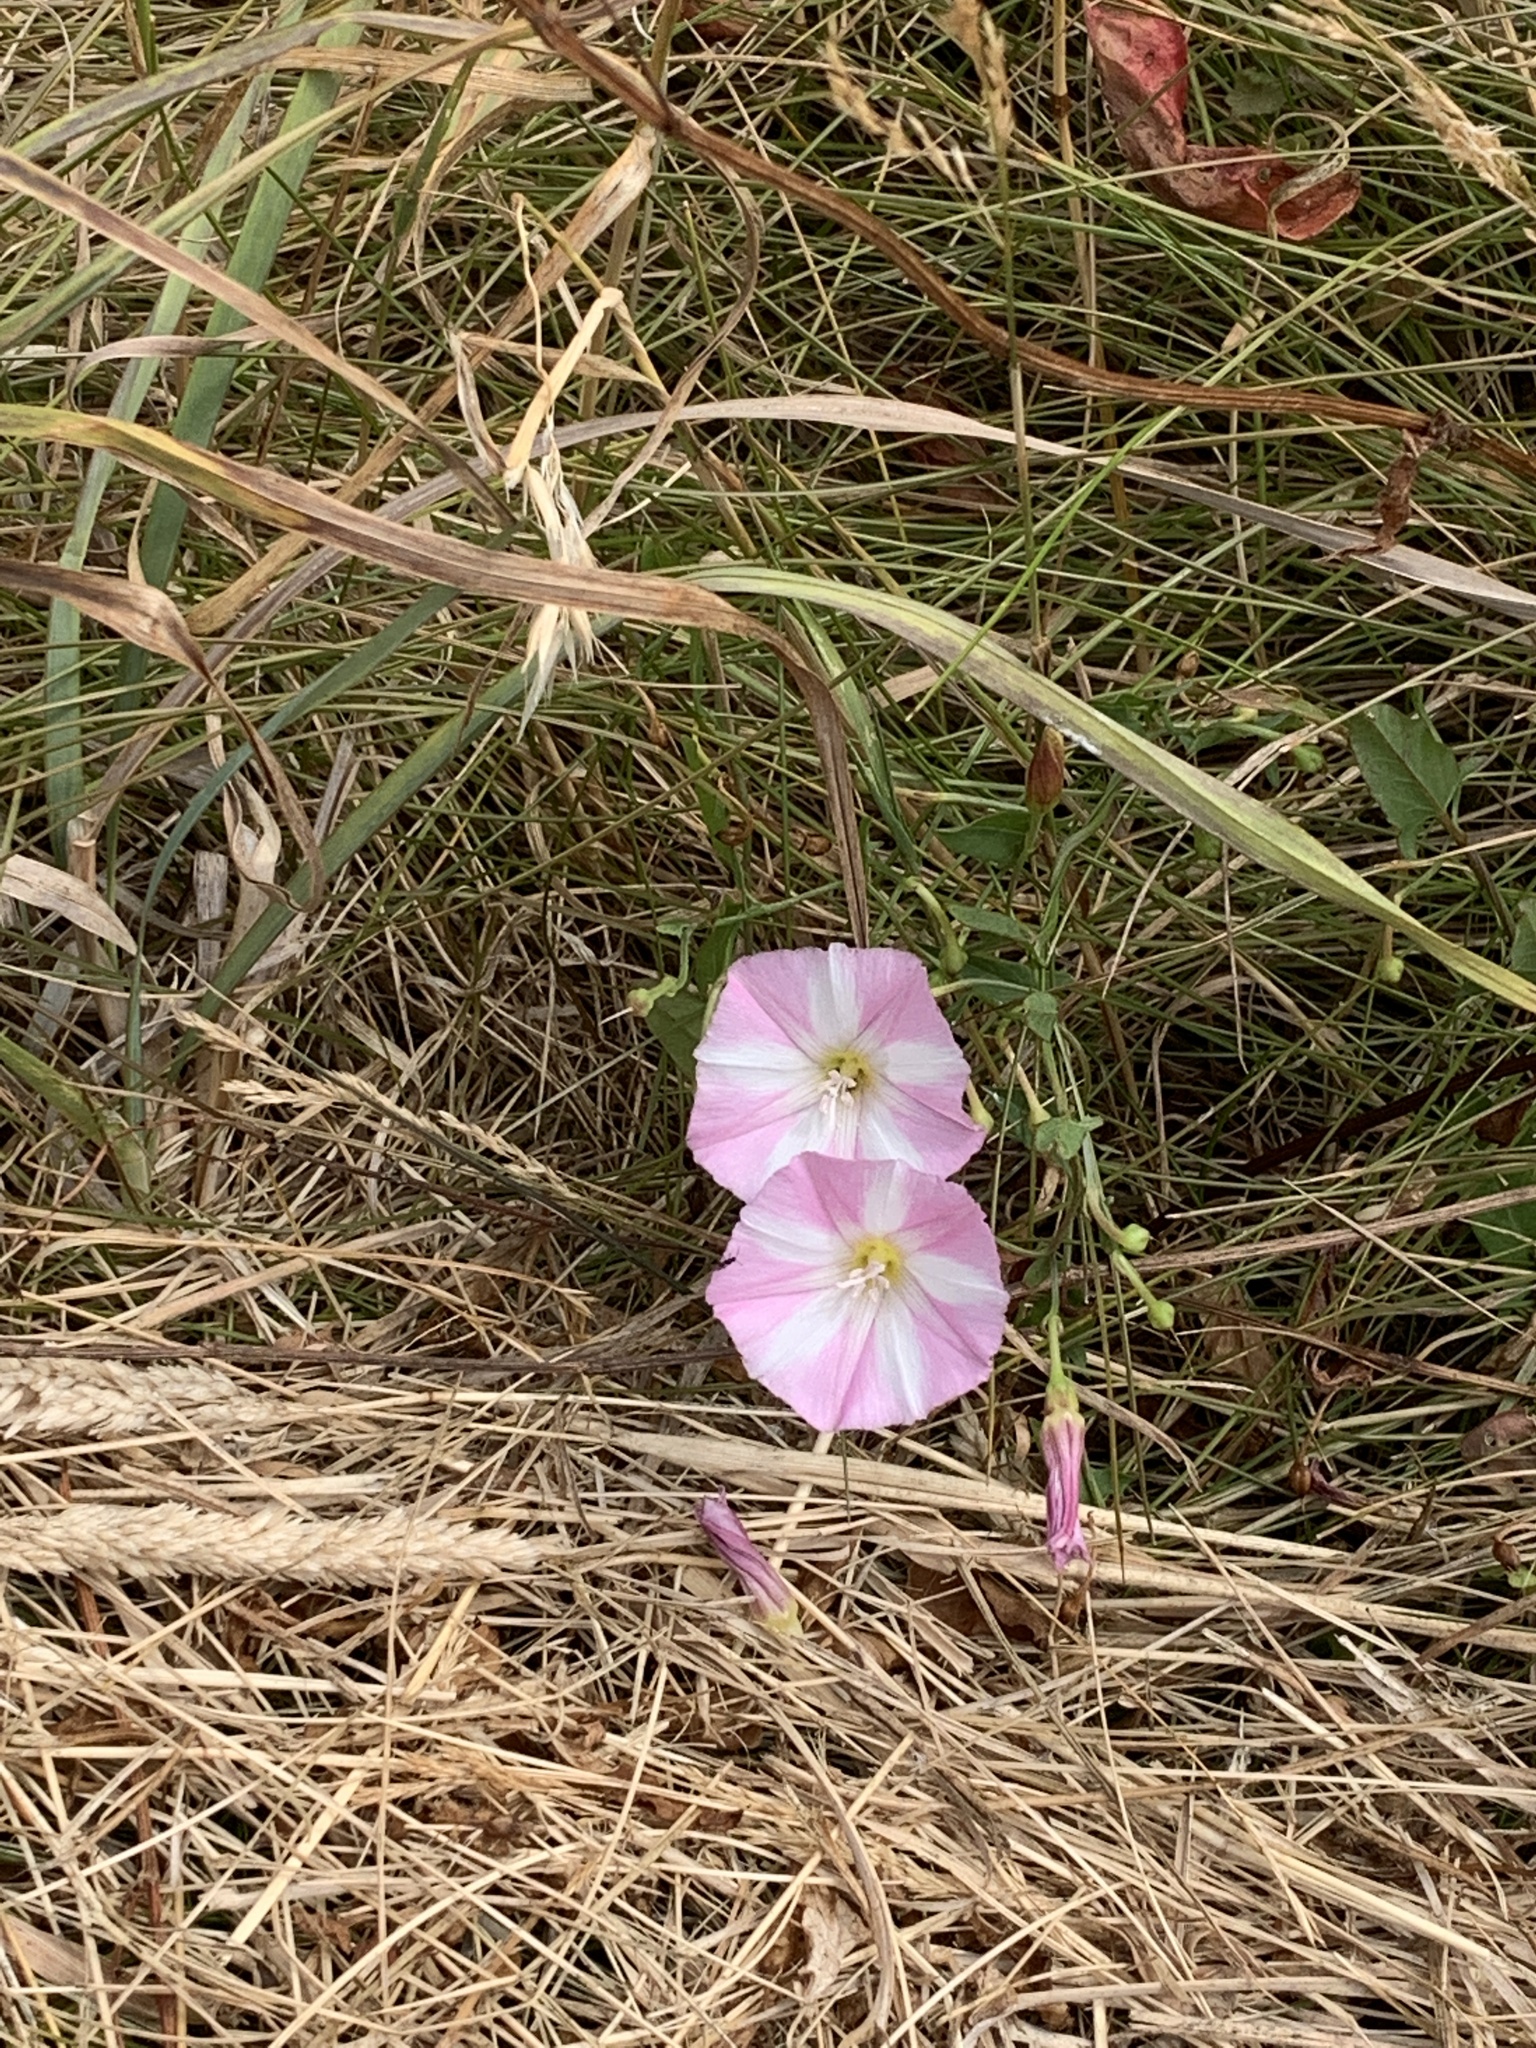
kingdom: Plantae
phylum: Tracheophyta
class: Magnoliopsida
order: Solanales
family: Convolvulaceae
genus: Convolvulus
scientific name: Convolvulus arvensis
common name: Field bindweed
